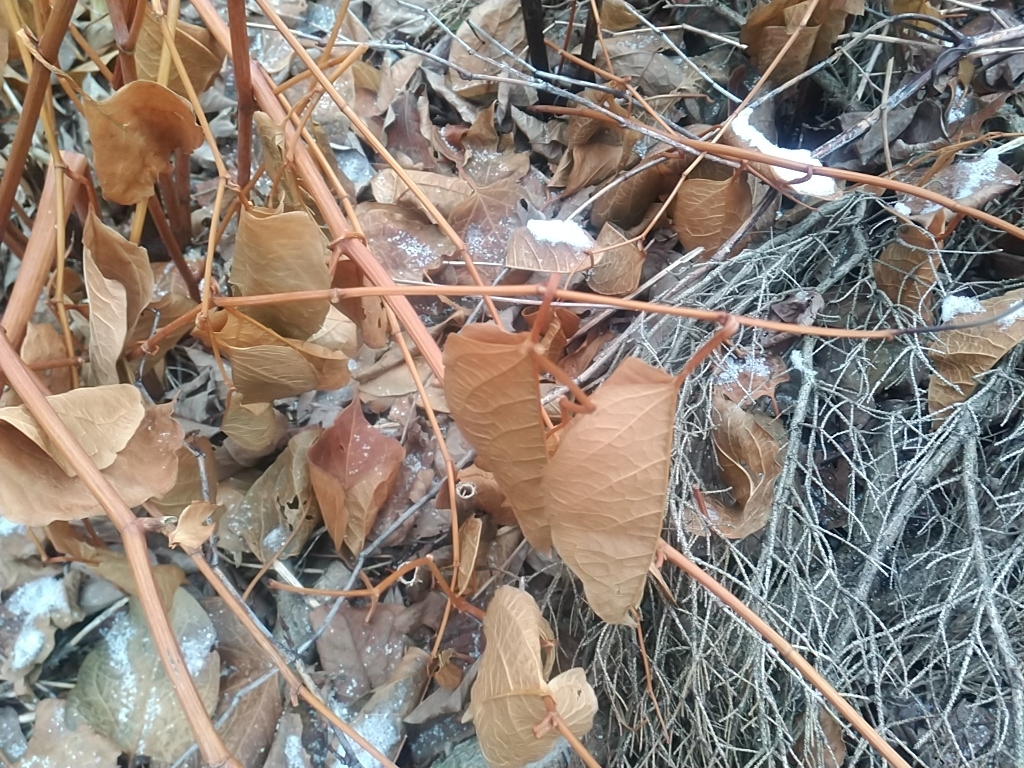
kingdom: Plantae
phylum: Tracheophyta
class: Magnoliopsida
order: Caryophyllales
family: Polygonaceae
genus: Reynoutria
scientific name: Reynoutria japonica
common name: Japanese knotweed
